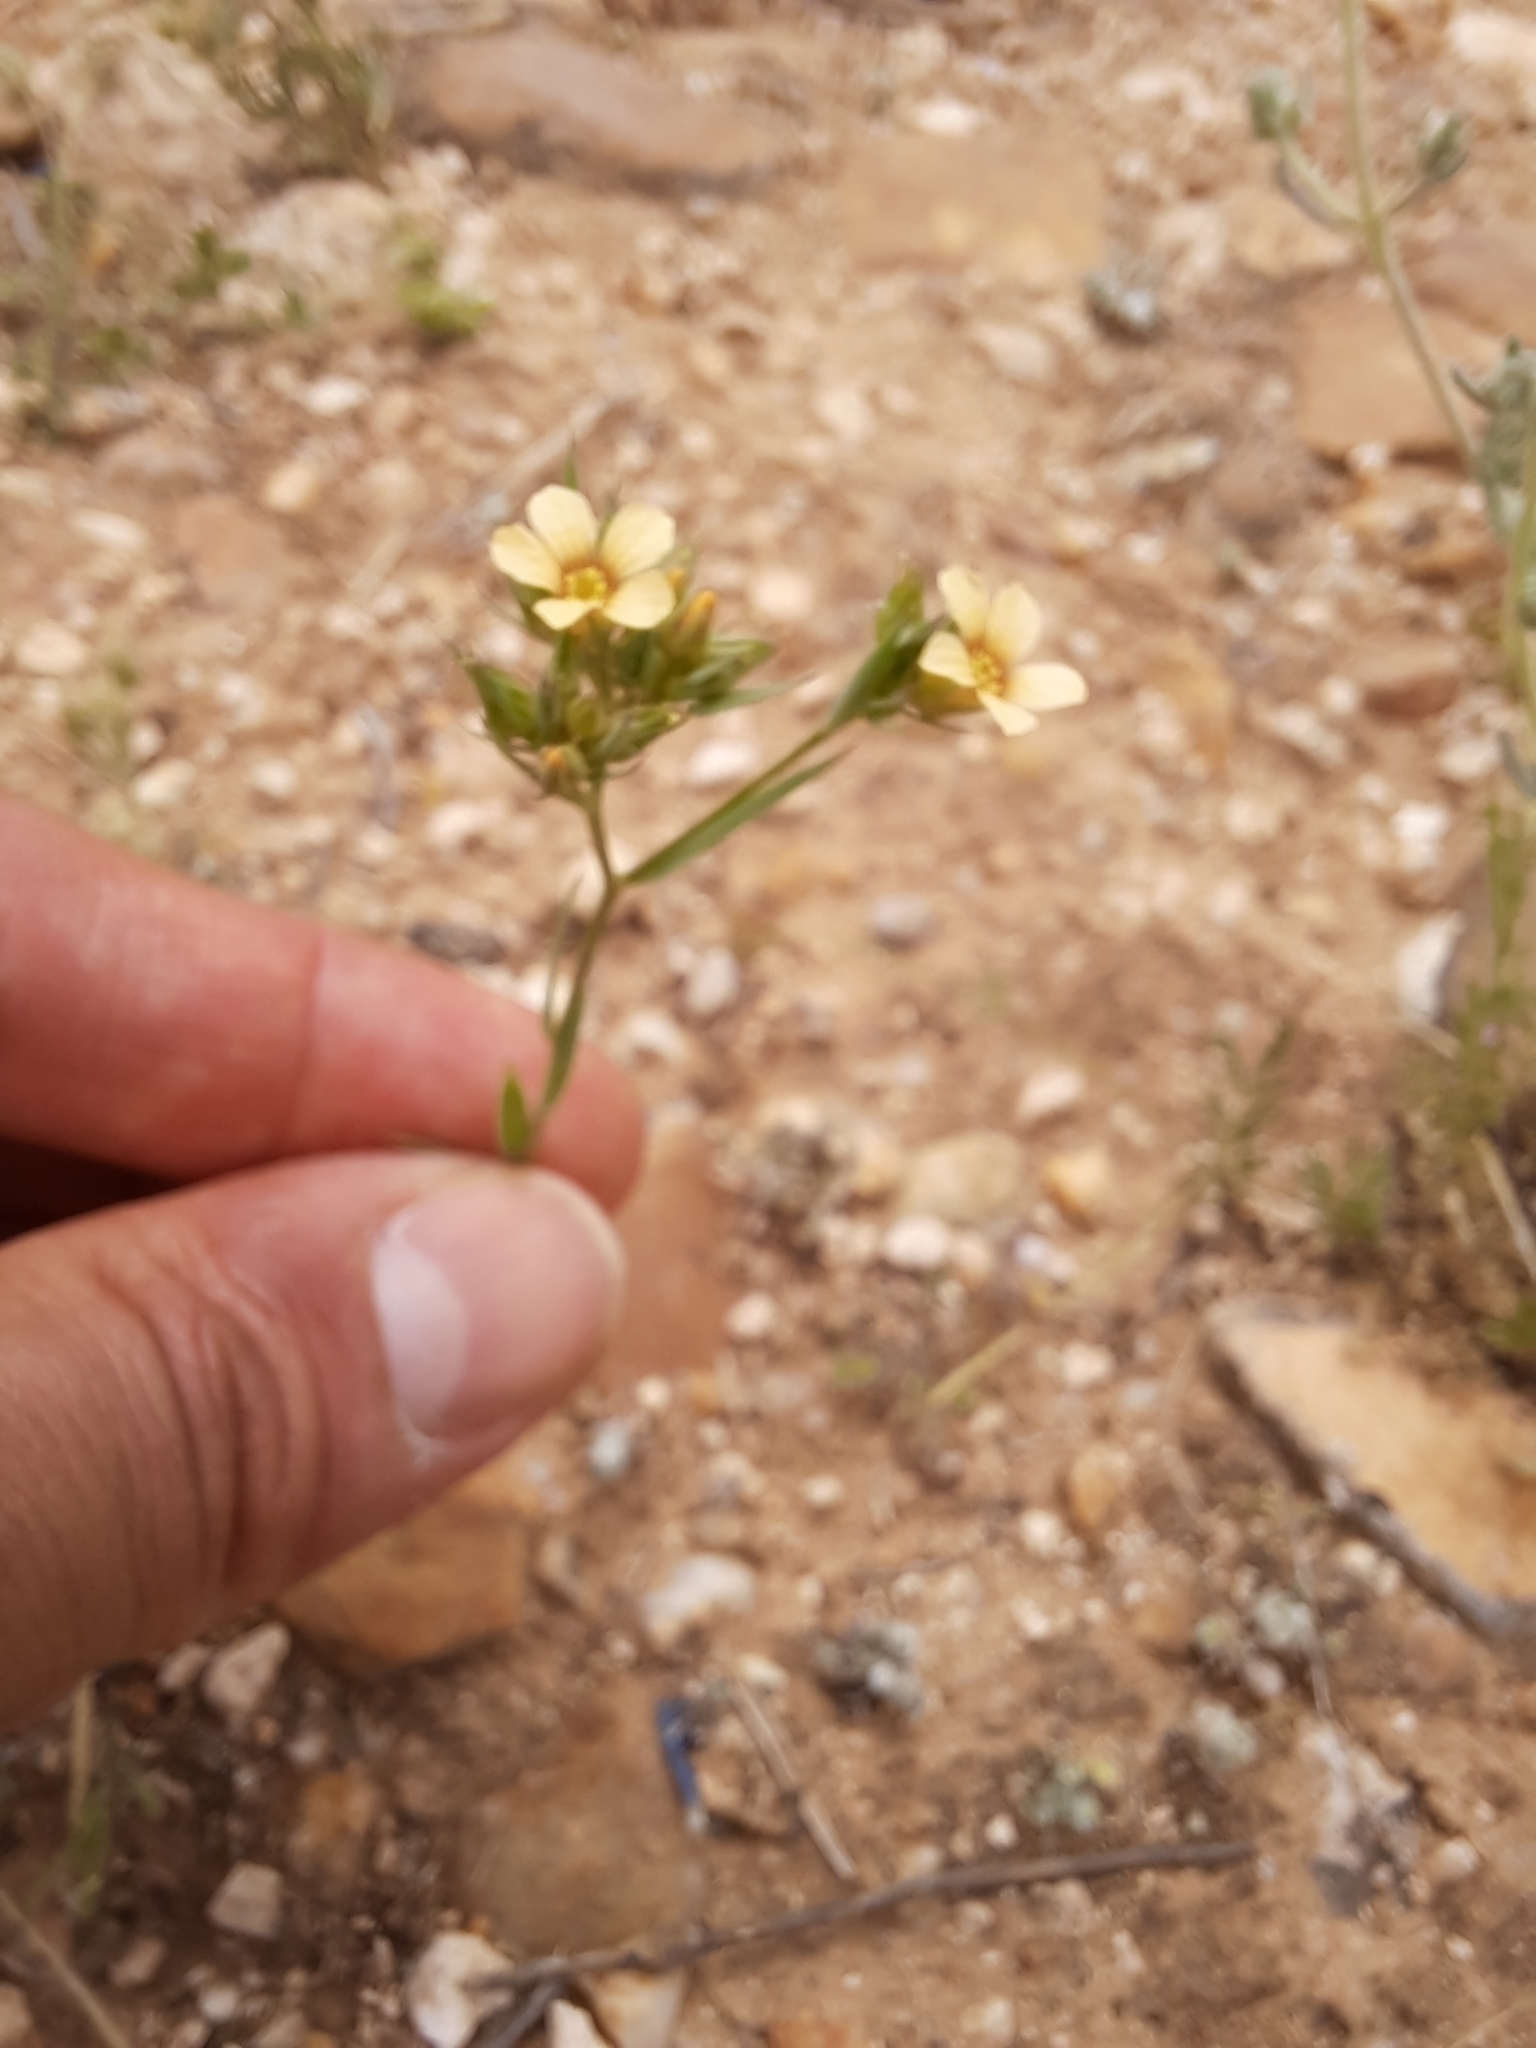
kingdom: Plantae
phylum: Tracheophyta
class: Magnoliopsida
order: Malpighiales
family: Linaceae
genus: Linum
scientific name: Linum strictum
